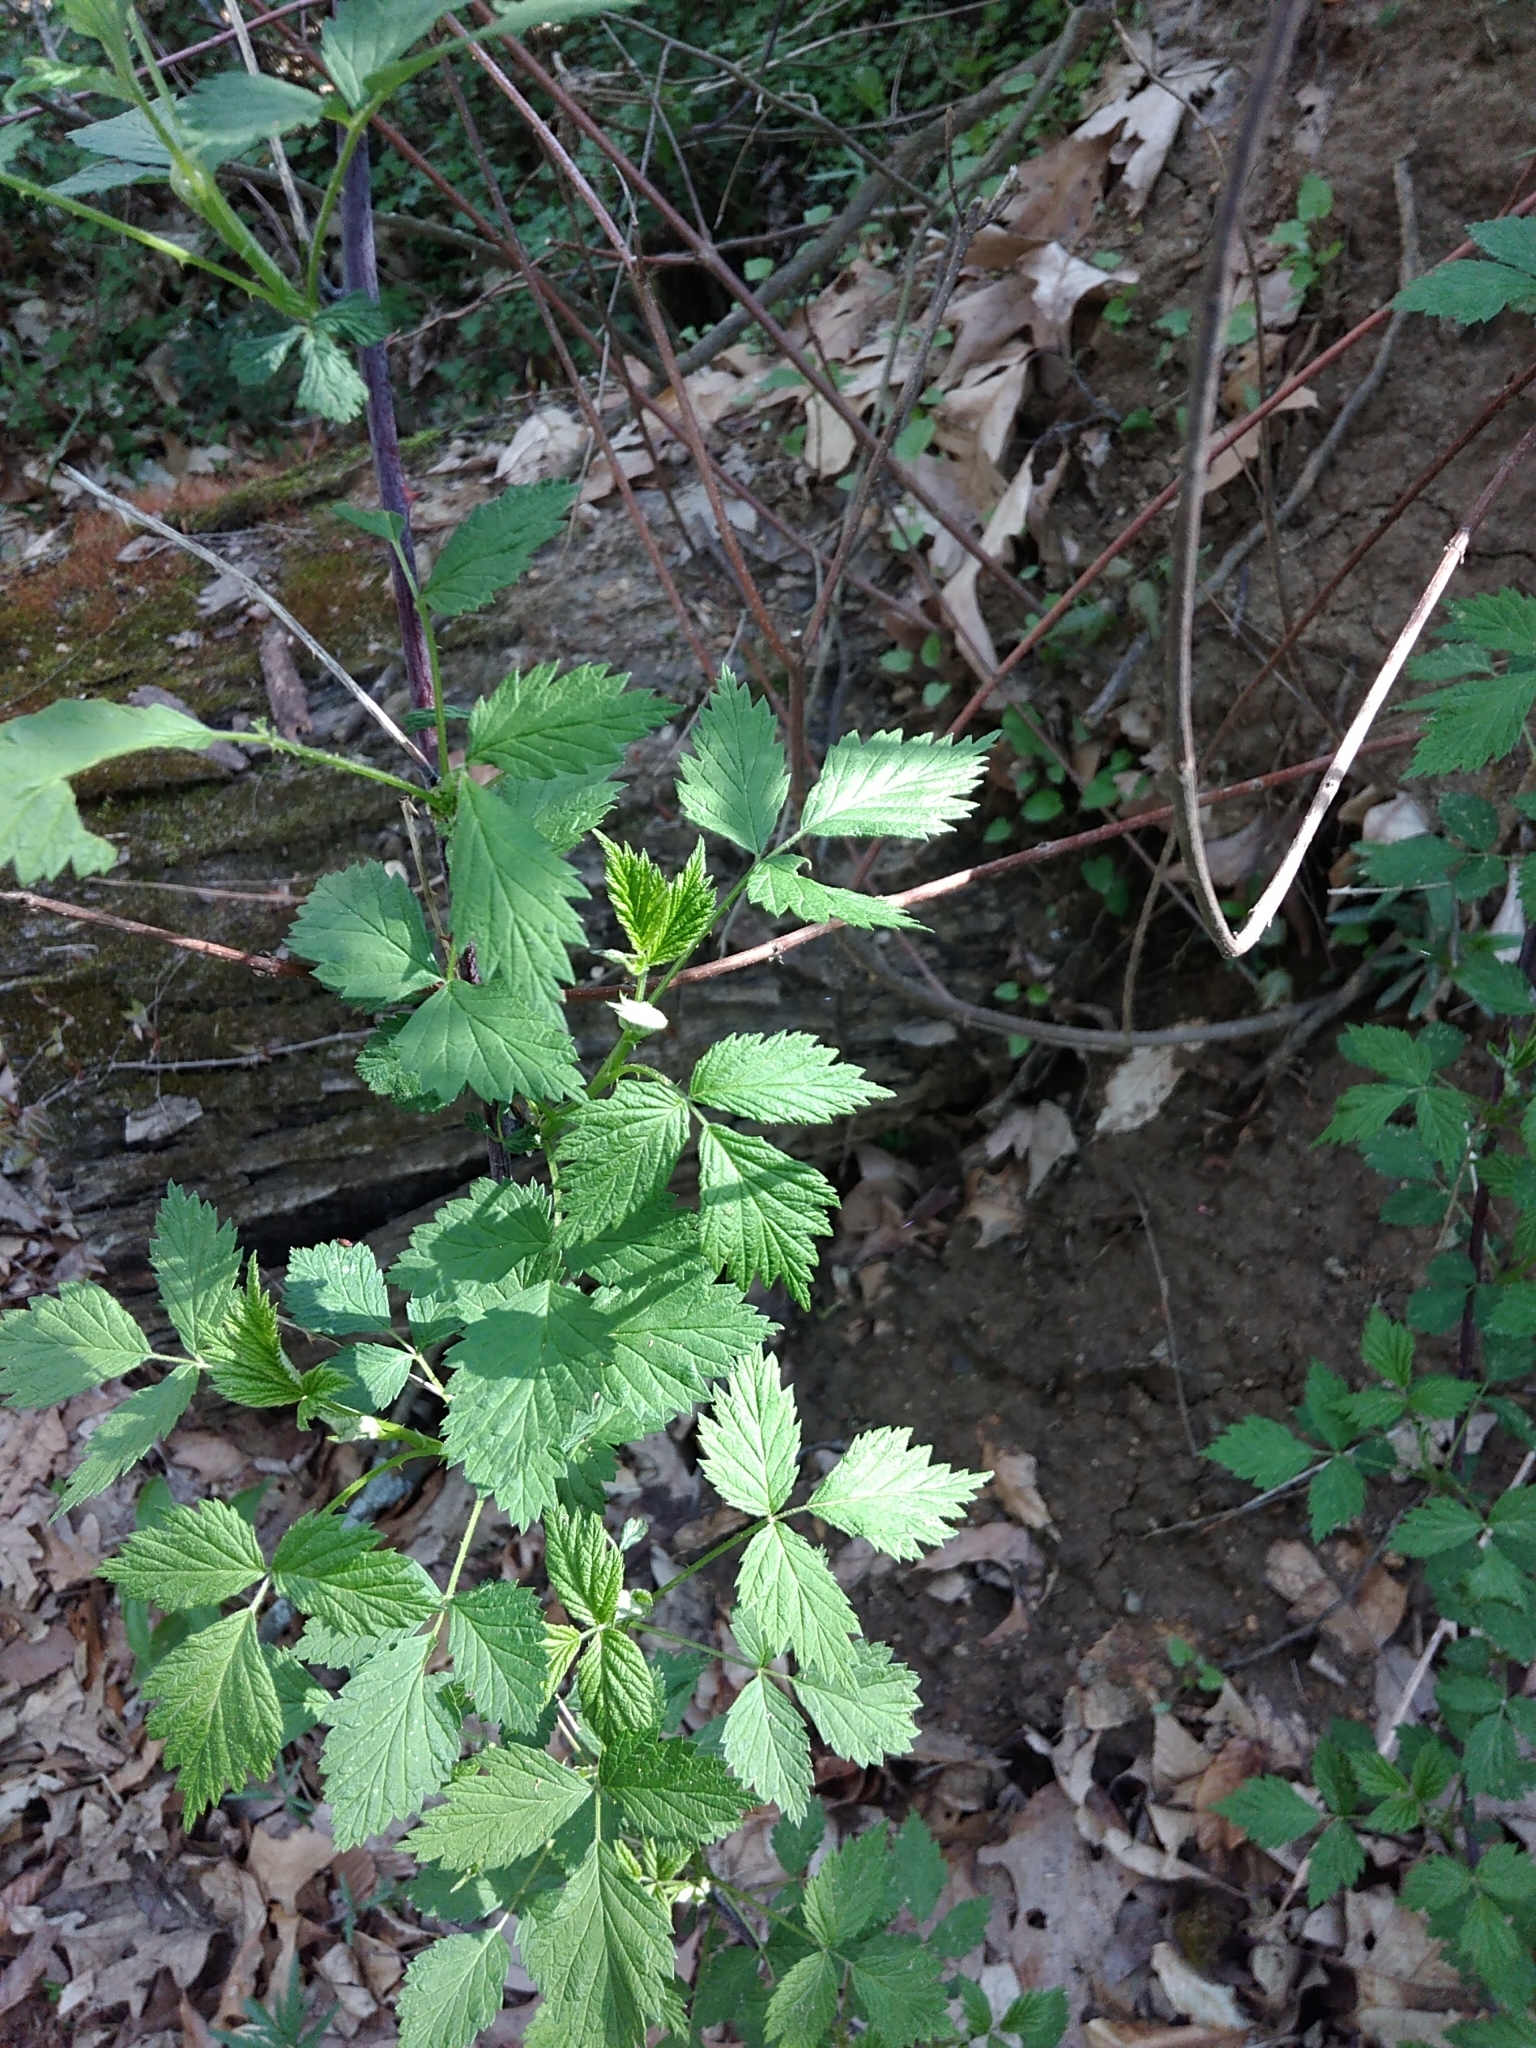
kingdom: Plantae
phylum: Tracheophyta
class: Magnoliopsida
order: Rosales
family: Rosaceae
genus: Rubus
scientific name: Rubus occidentalis
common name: Black raspberry
